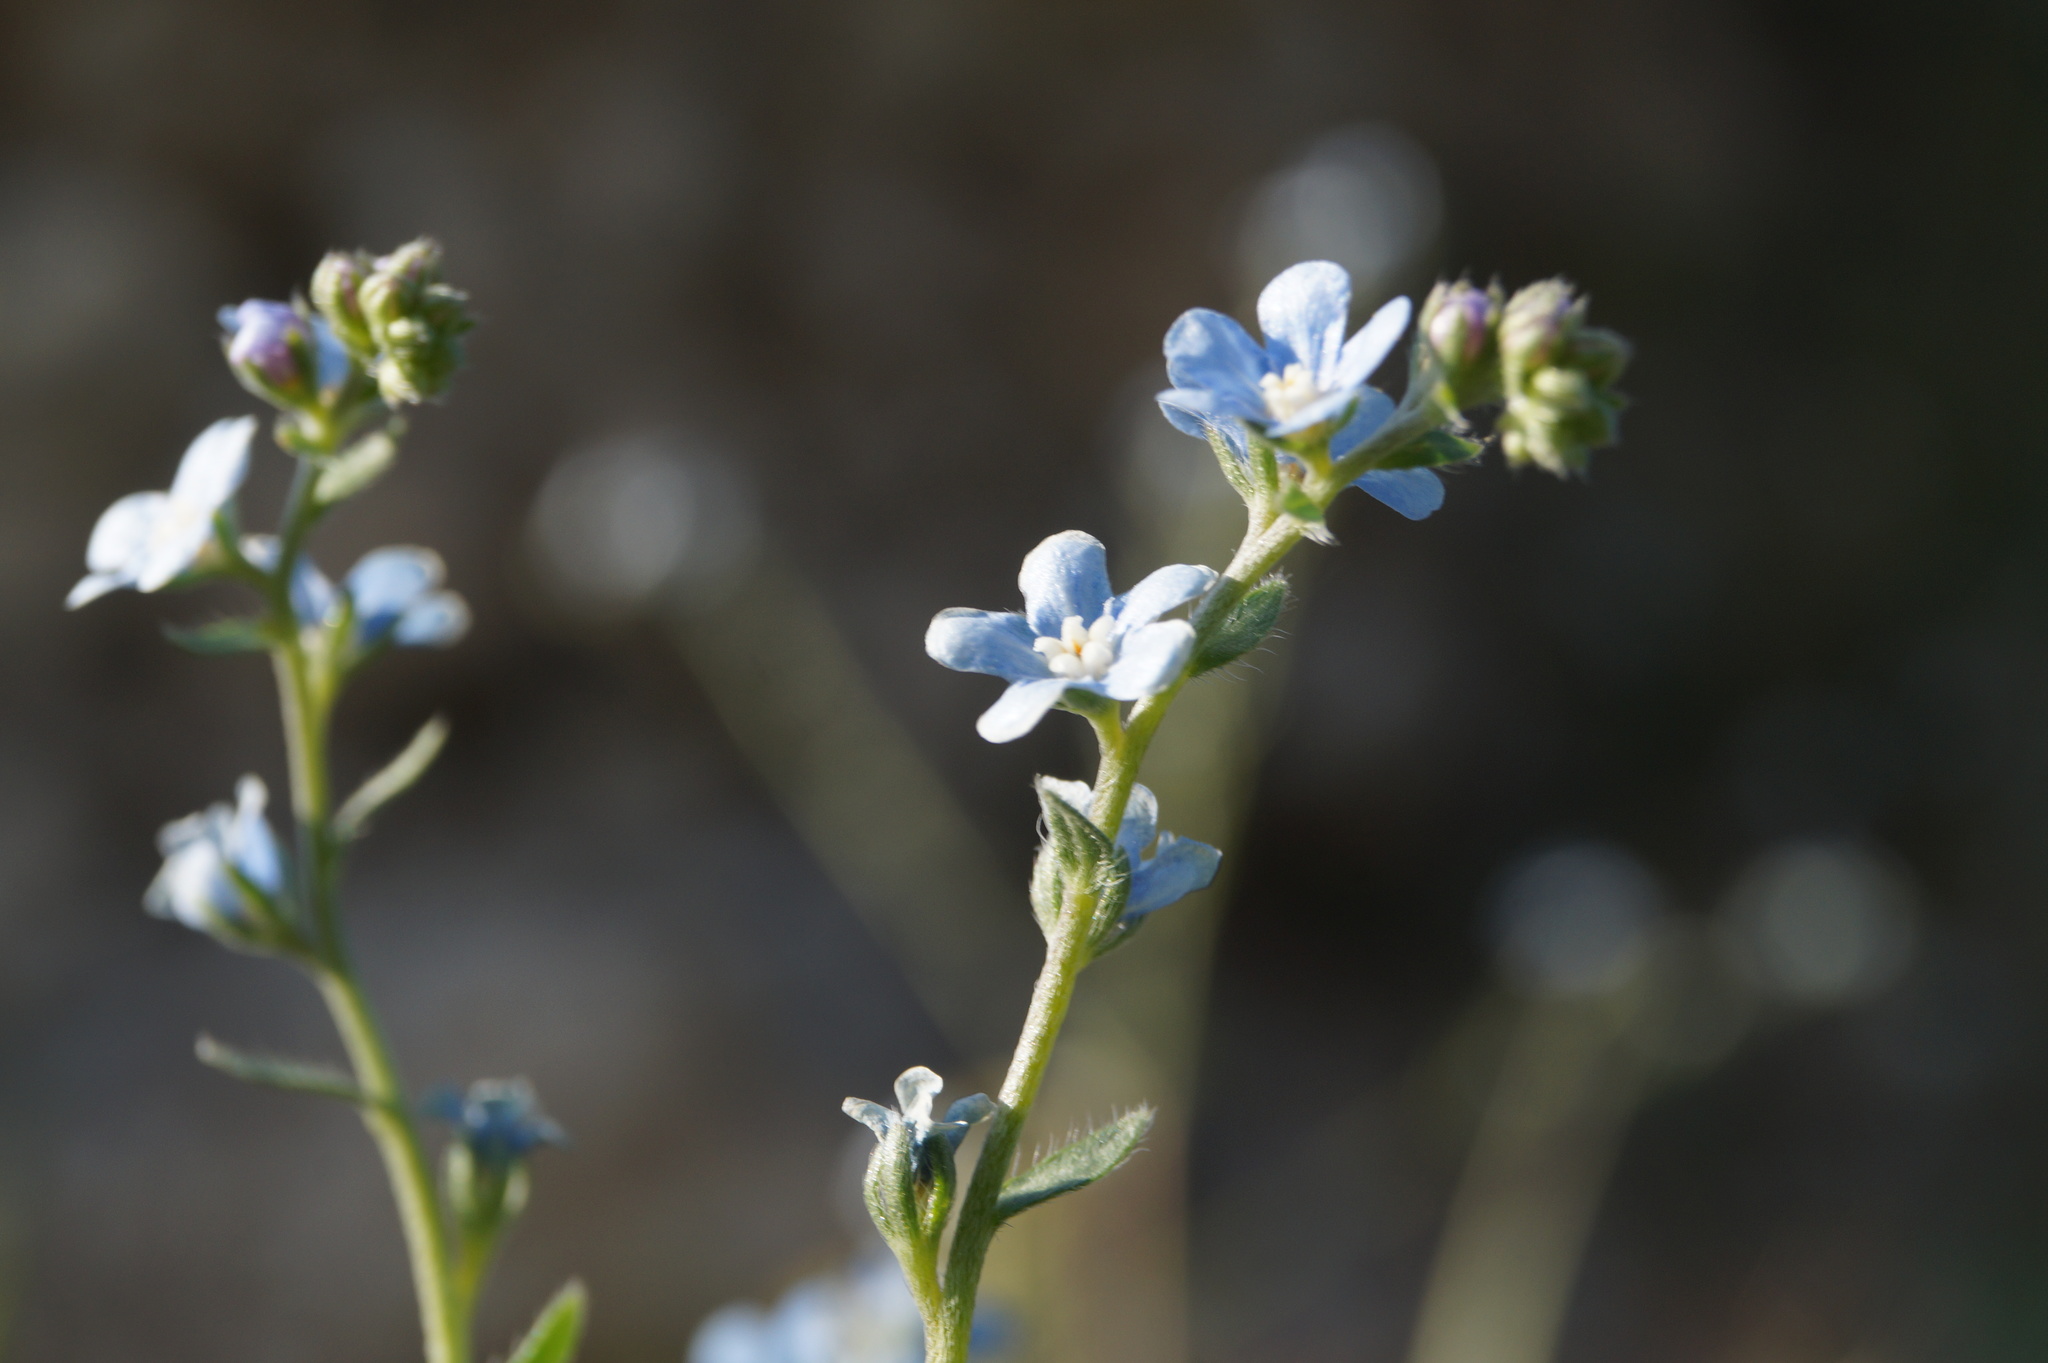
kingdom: Plantae
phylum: Tracheophyta
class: Magnoliopsida
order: Boraginales
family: Boraginaceae
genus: Lappula
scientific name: Lappula barbata
